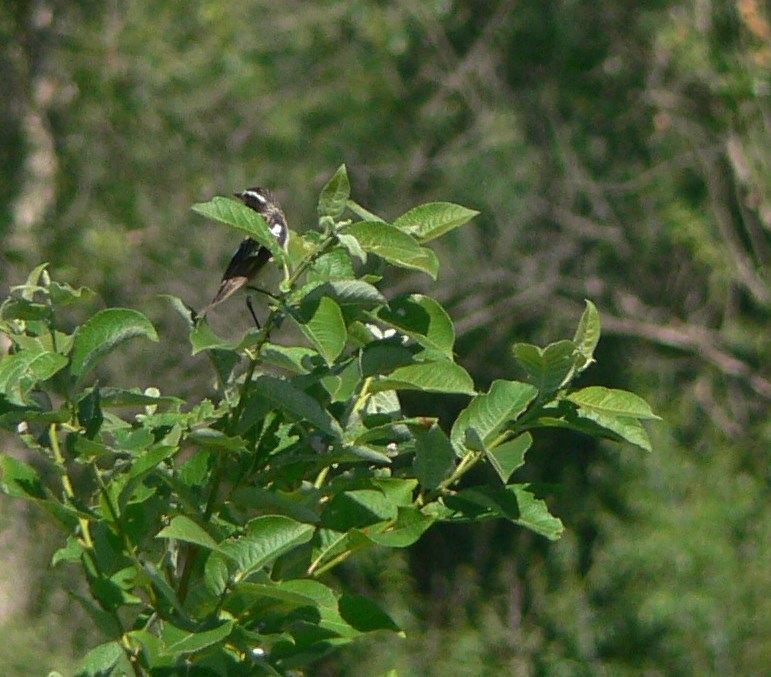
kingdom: Animalia
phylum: Chordata
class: Aves
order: Passeriformes
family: Muscicapidae
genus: Saxicola
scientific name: Saxicola rubetra
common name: Whinchat
